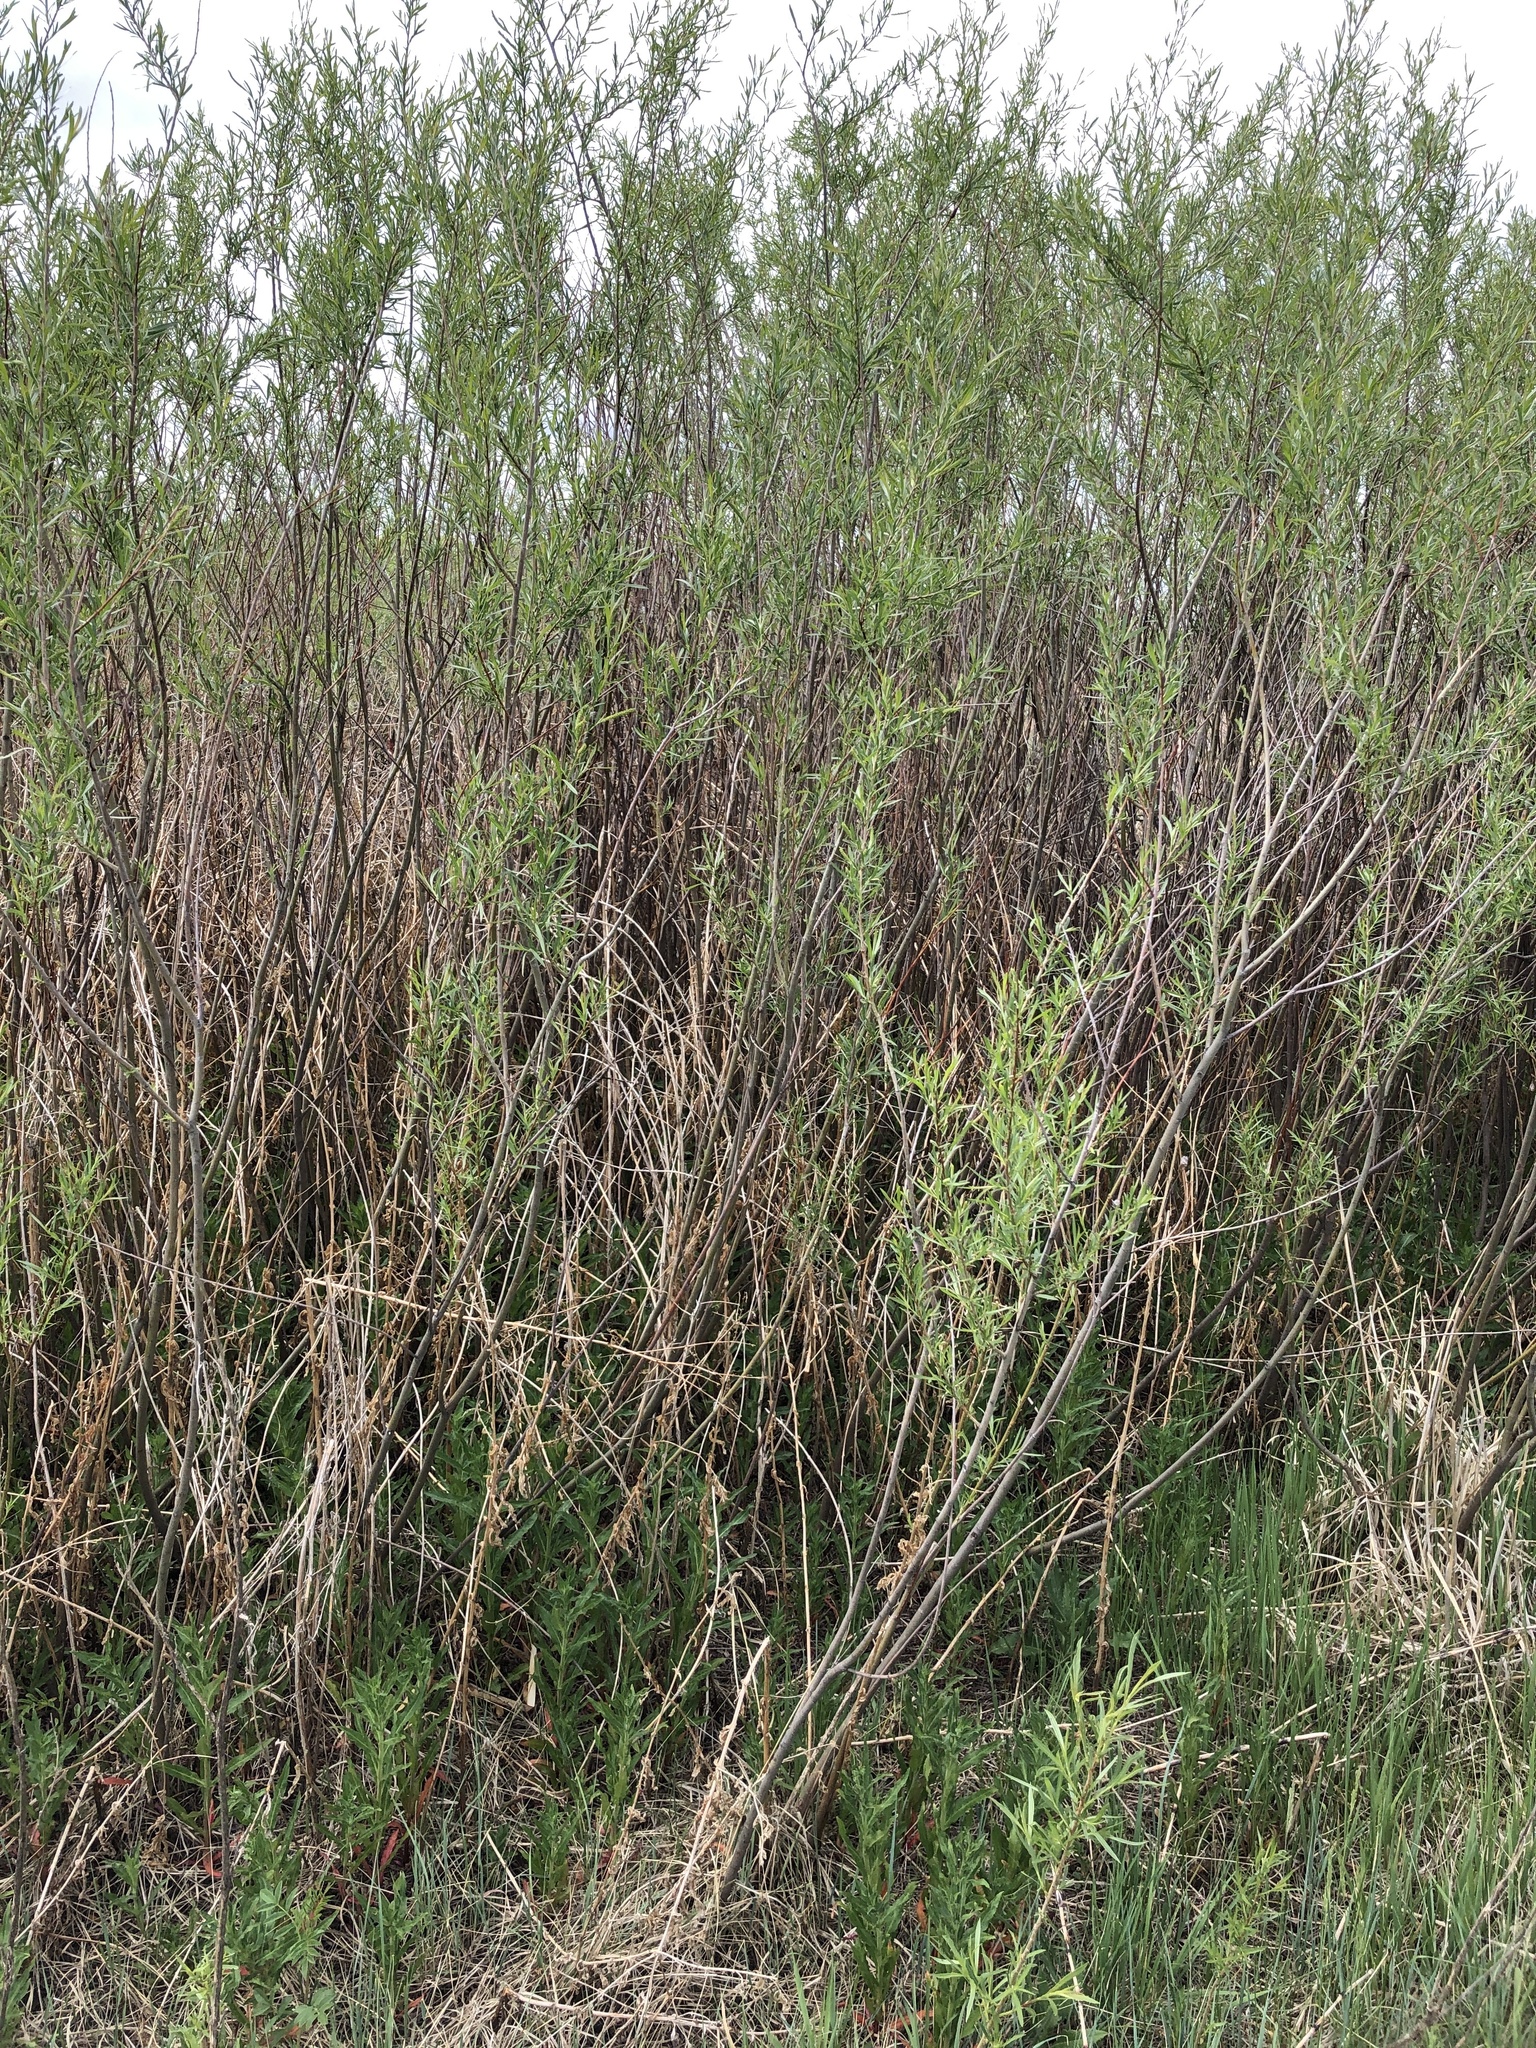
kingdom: Plantae
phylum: Tracheophyta
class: Magnoliopsida
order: Malpighiales
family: Salicaceae
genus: Salix
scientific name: Salix exigua
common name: Coyote willow
